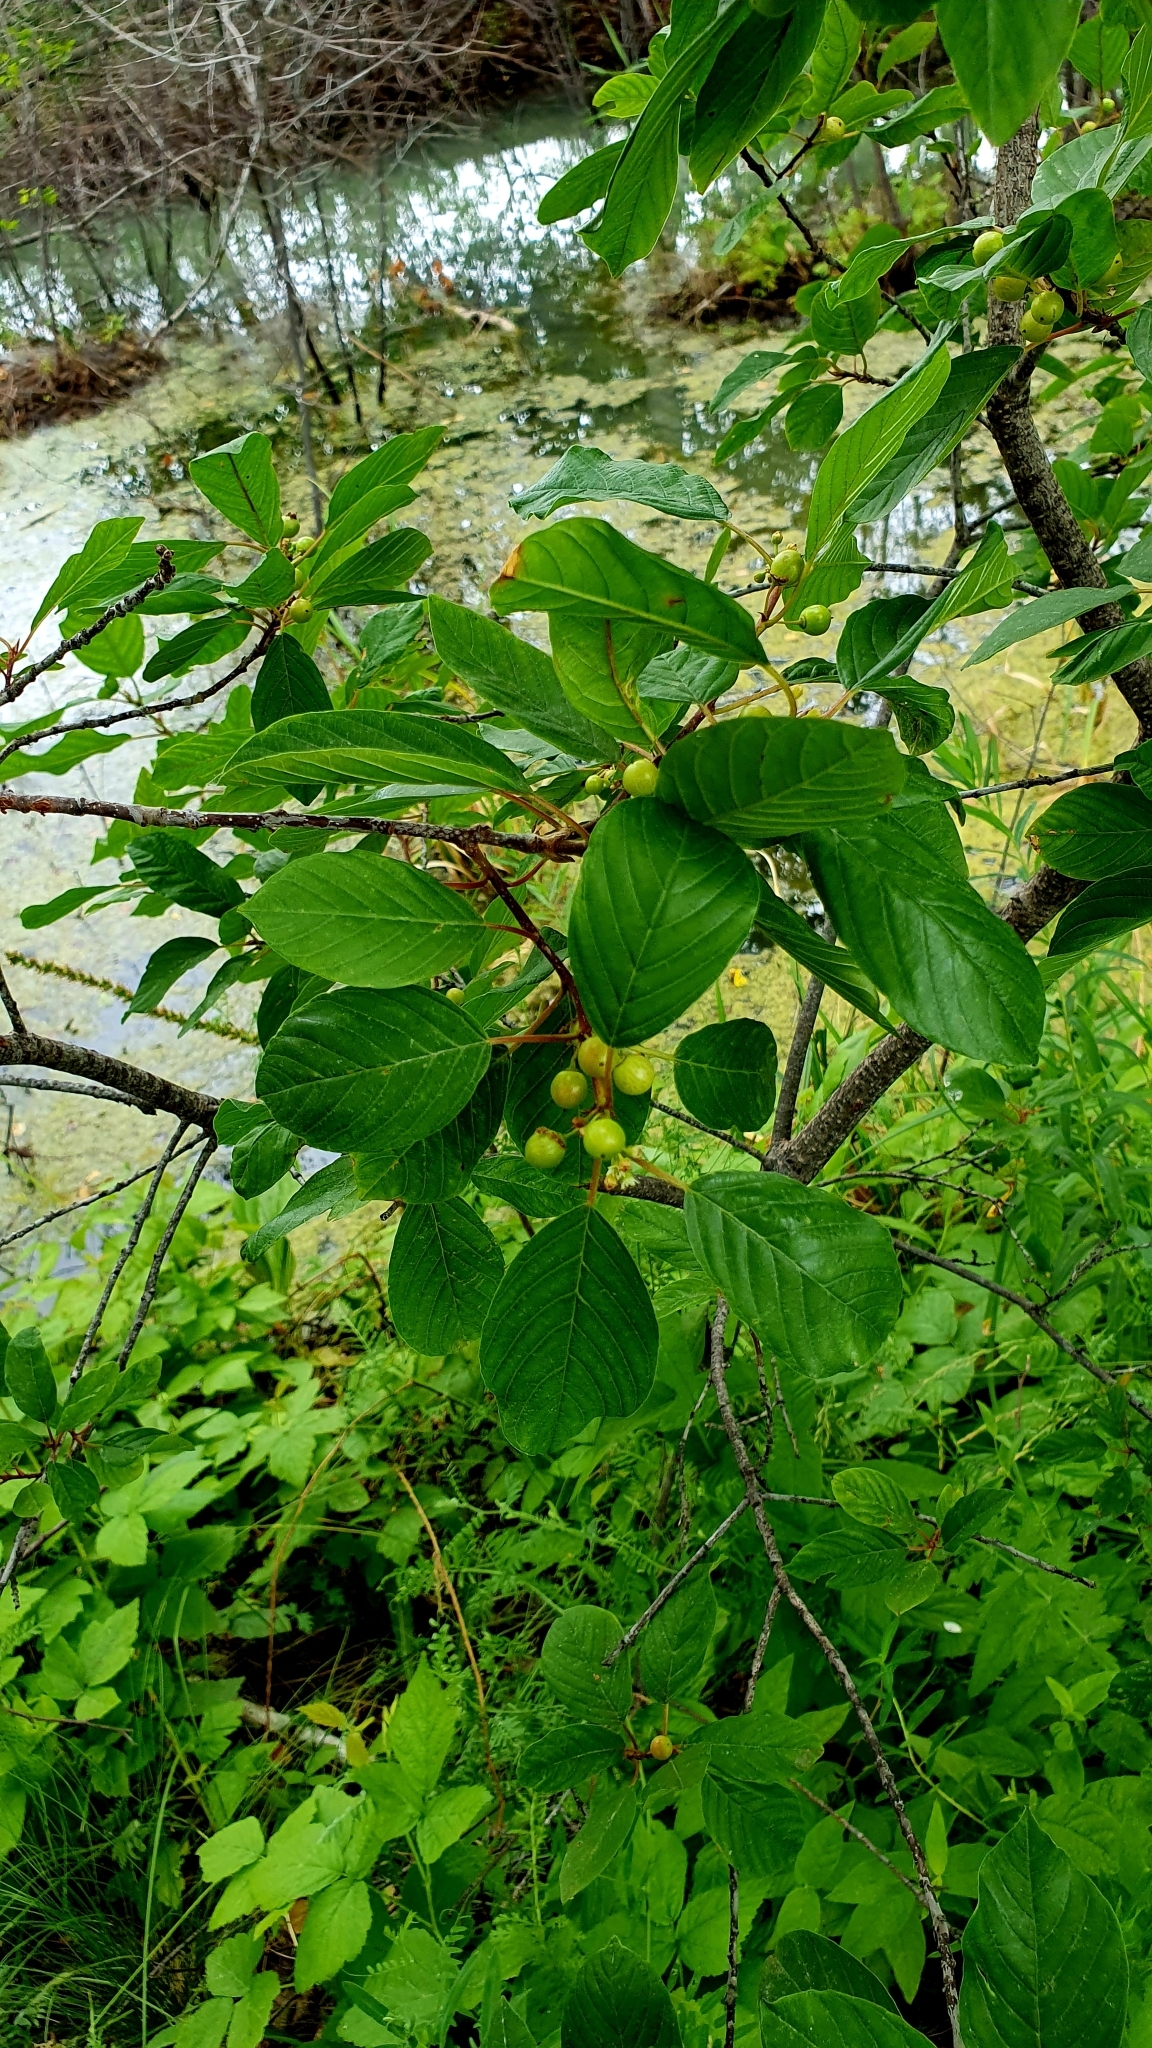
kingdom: Plantae
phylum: Tracheophyta
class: Magnoliopsida
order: Rosales
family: Rhamnaceae
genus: Frangula
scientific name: Frangula alnus
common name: Alder buckthorn
